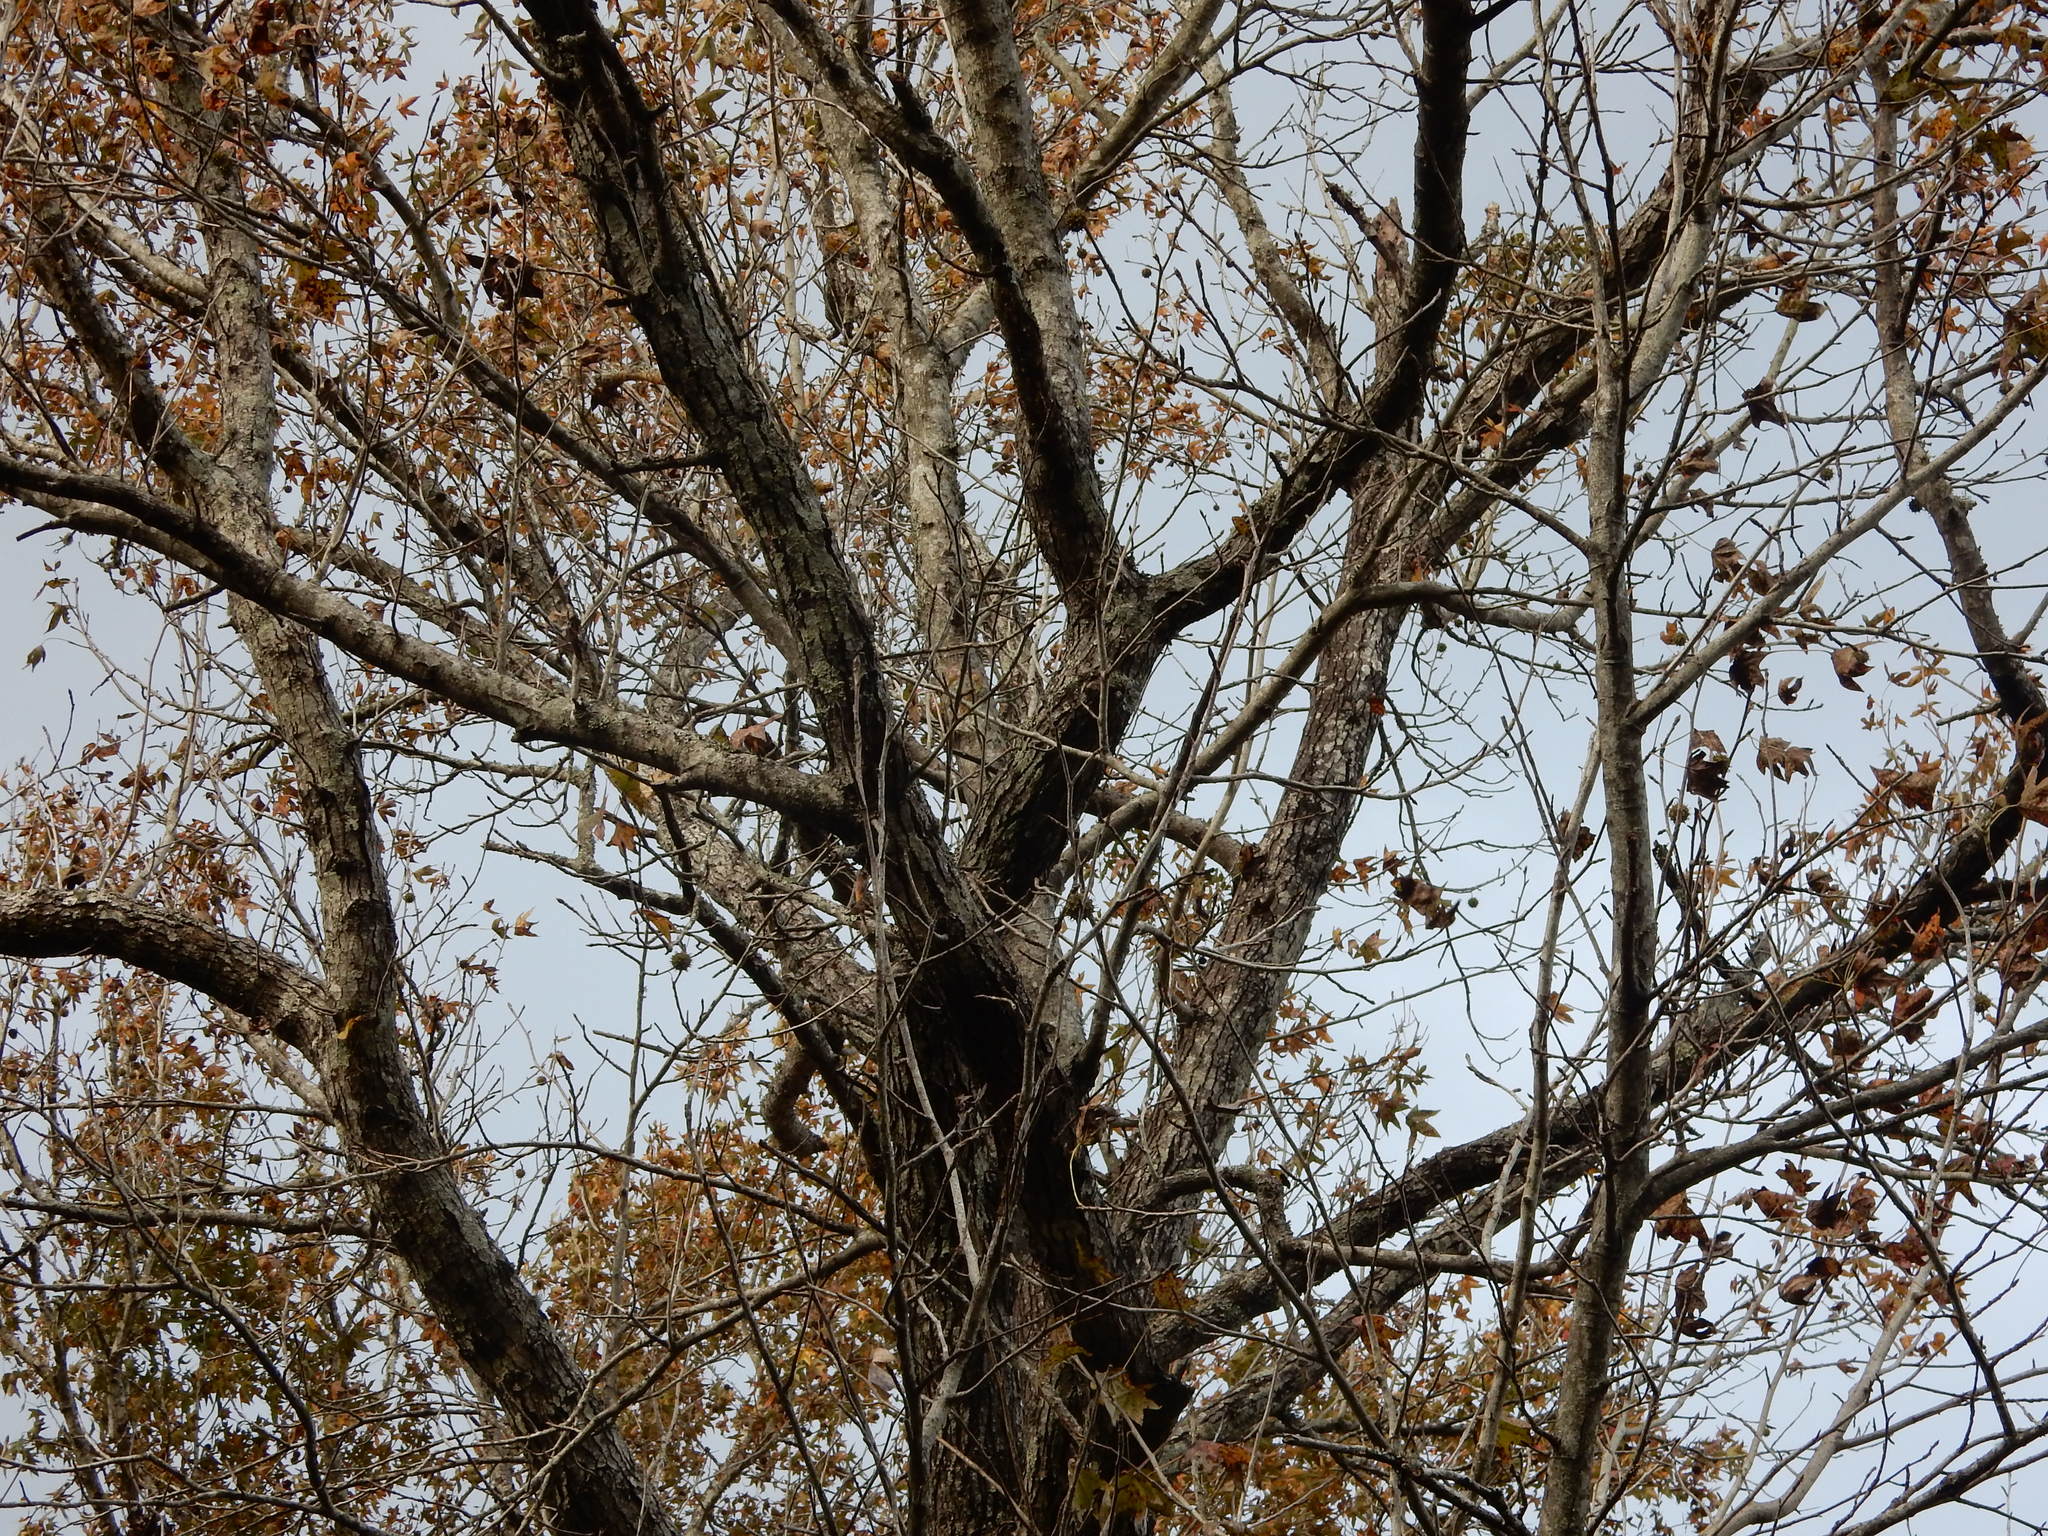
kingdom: Plantae
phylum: Tracheophyta
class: Magnoliopsida
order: Saxifragales
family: Altingiaceae
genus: Liquidambar
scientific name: Liquidambar styraciflua
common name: Sweet gum
